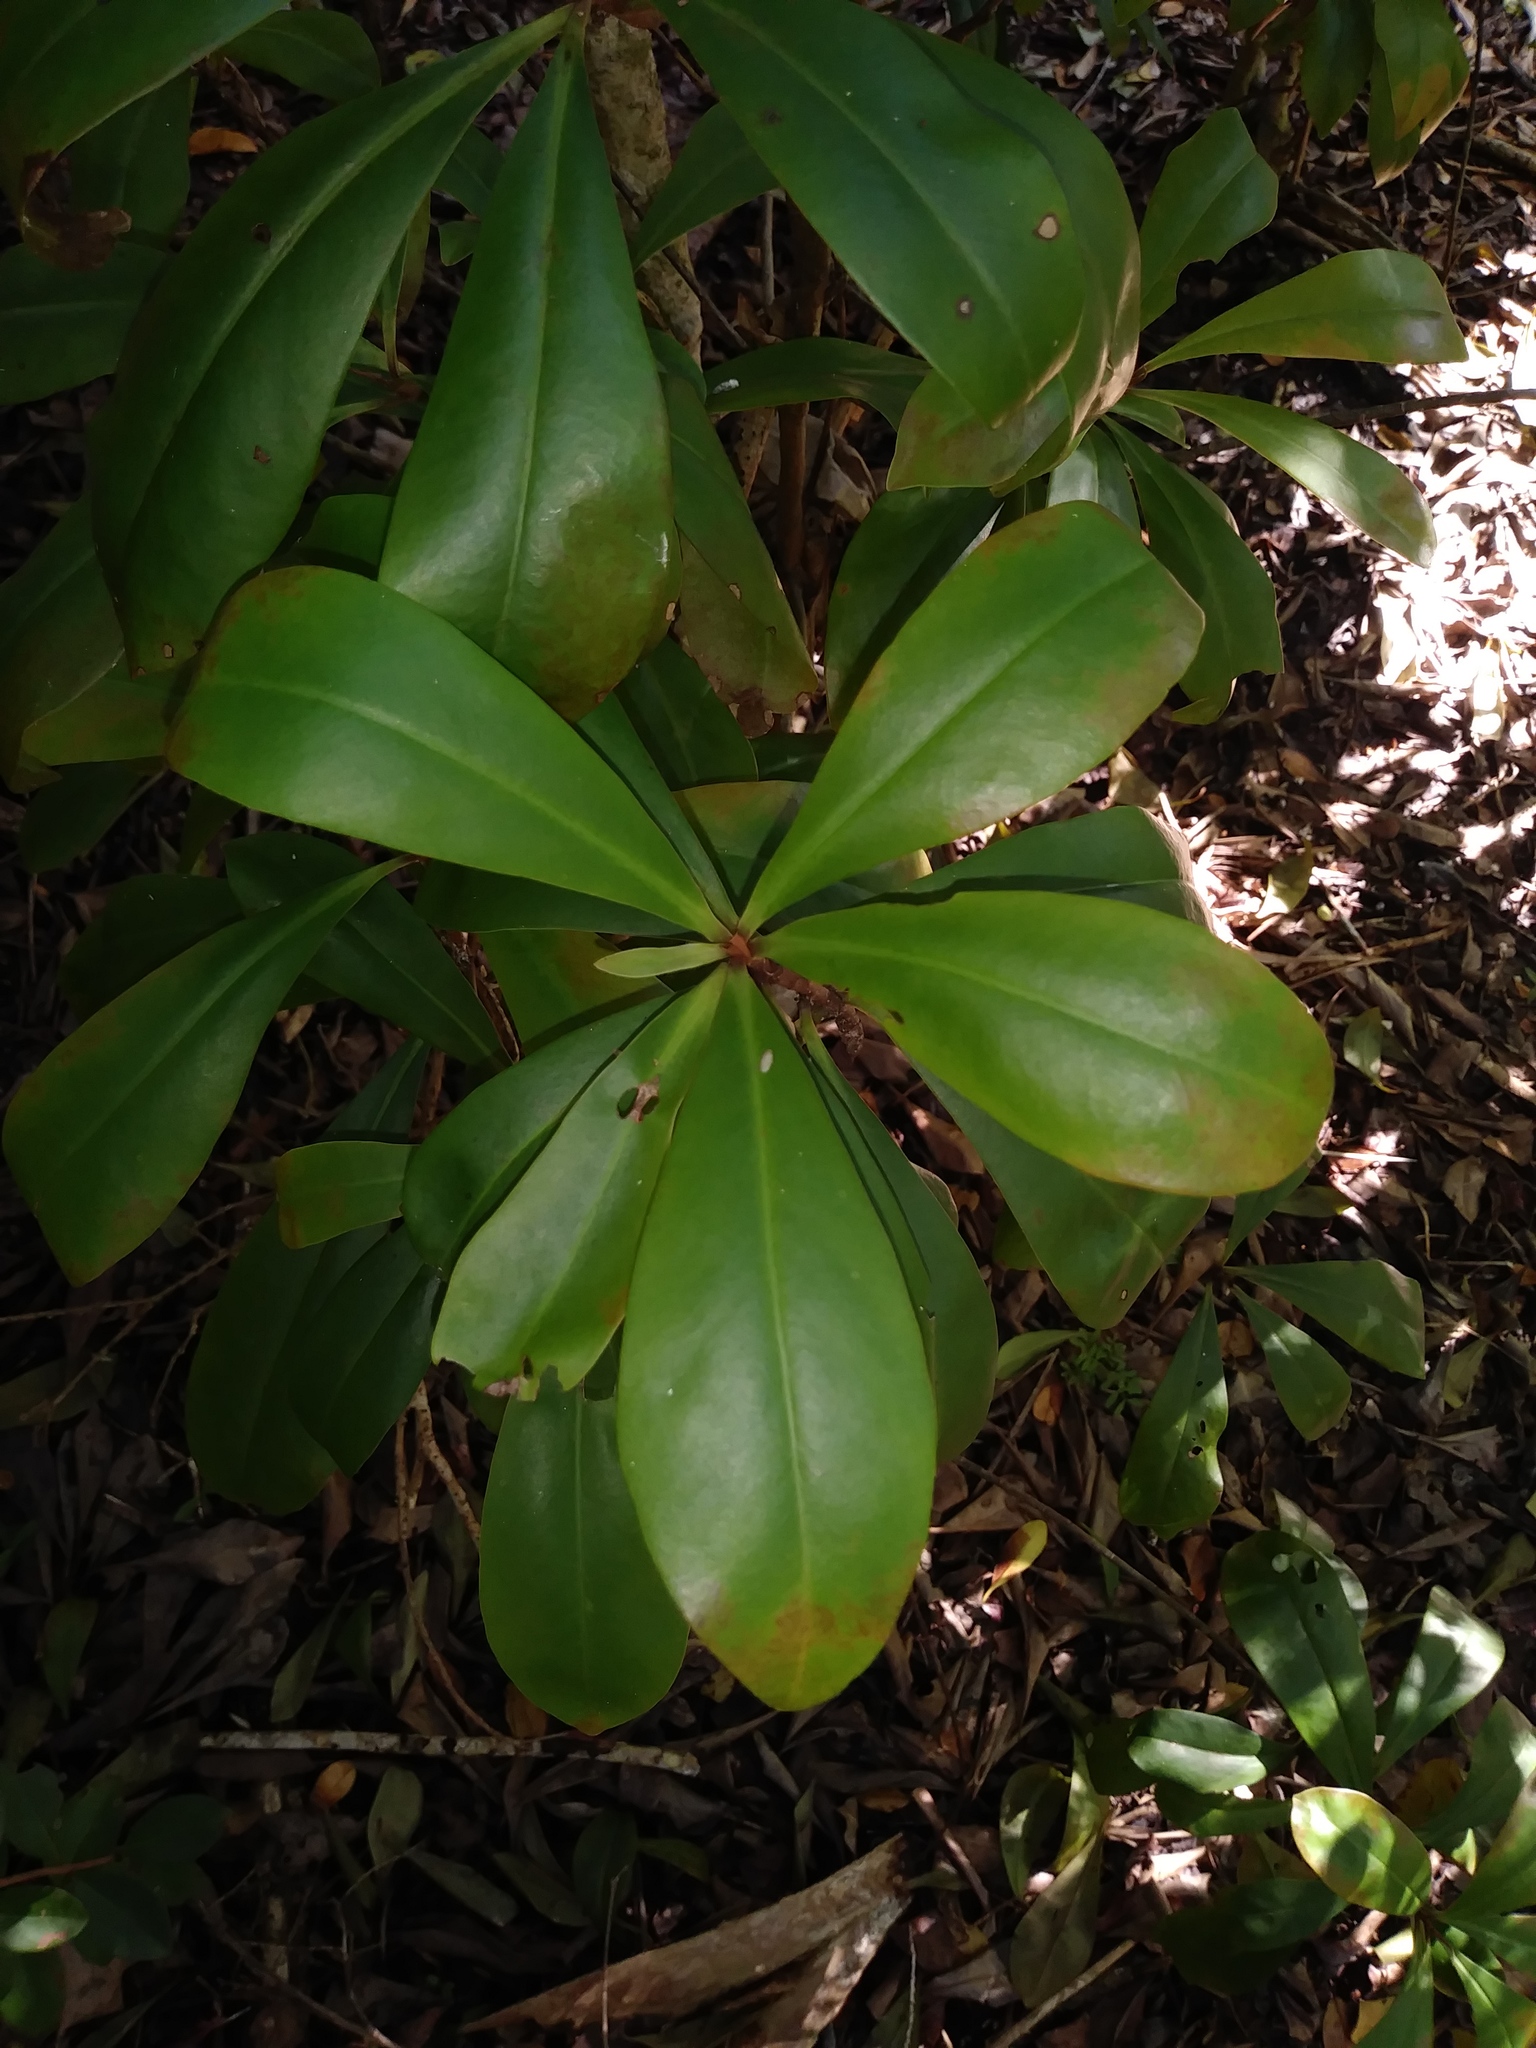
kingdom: Plantae
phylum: Tracheophyta
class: Magnoliopsida
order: Ericales
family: Primulaceae
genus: Ardisia
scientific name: Ardisia escallonioides
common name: Island marlberry
